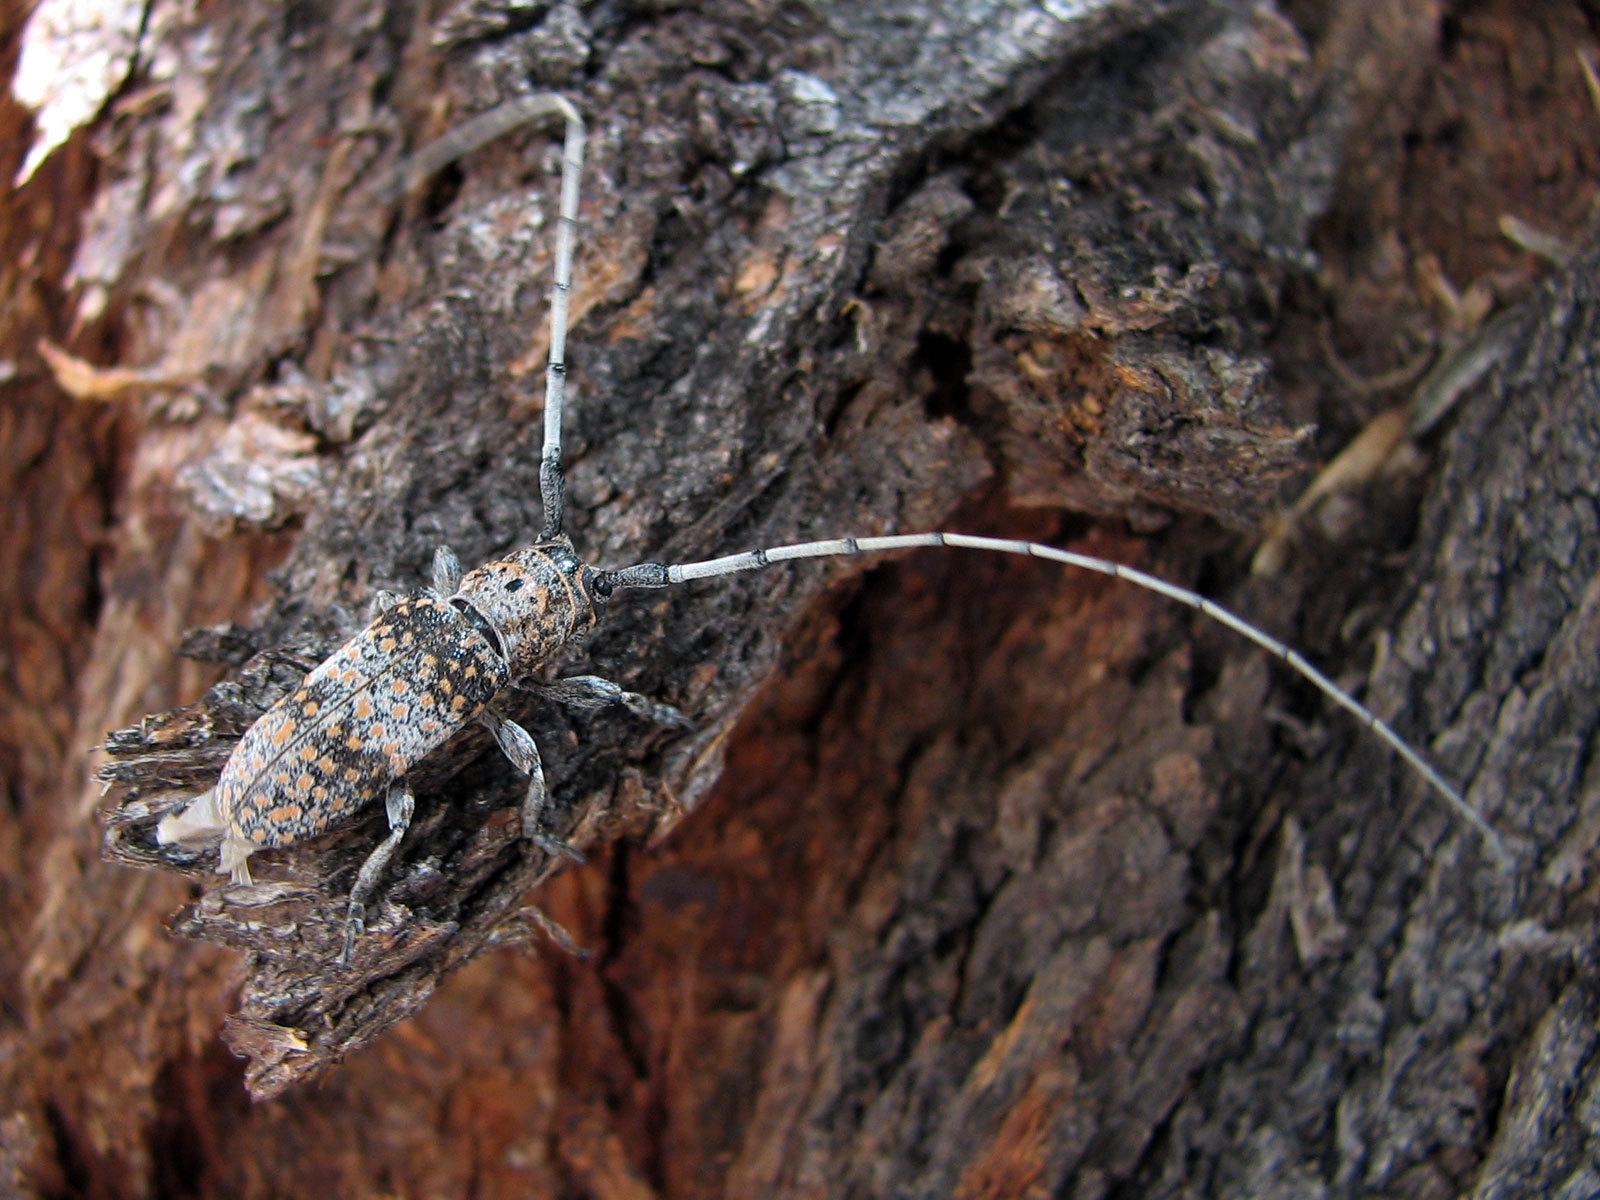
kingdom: Animalia
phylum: Arthropoda
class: Insecta
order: Coleoptera
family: Cerambycidae
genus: Oncideres
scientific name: Oncideres rhodosticta
